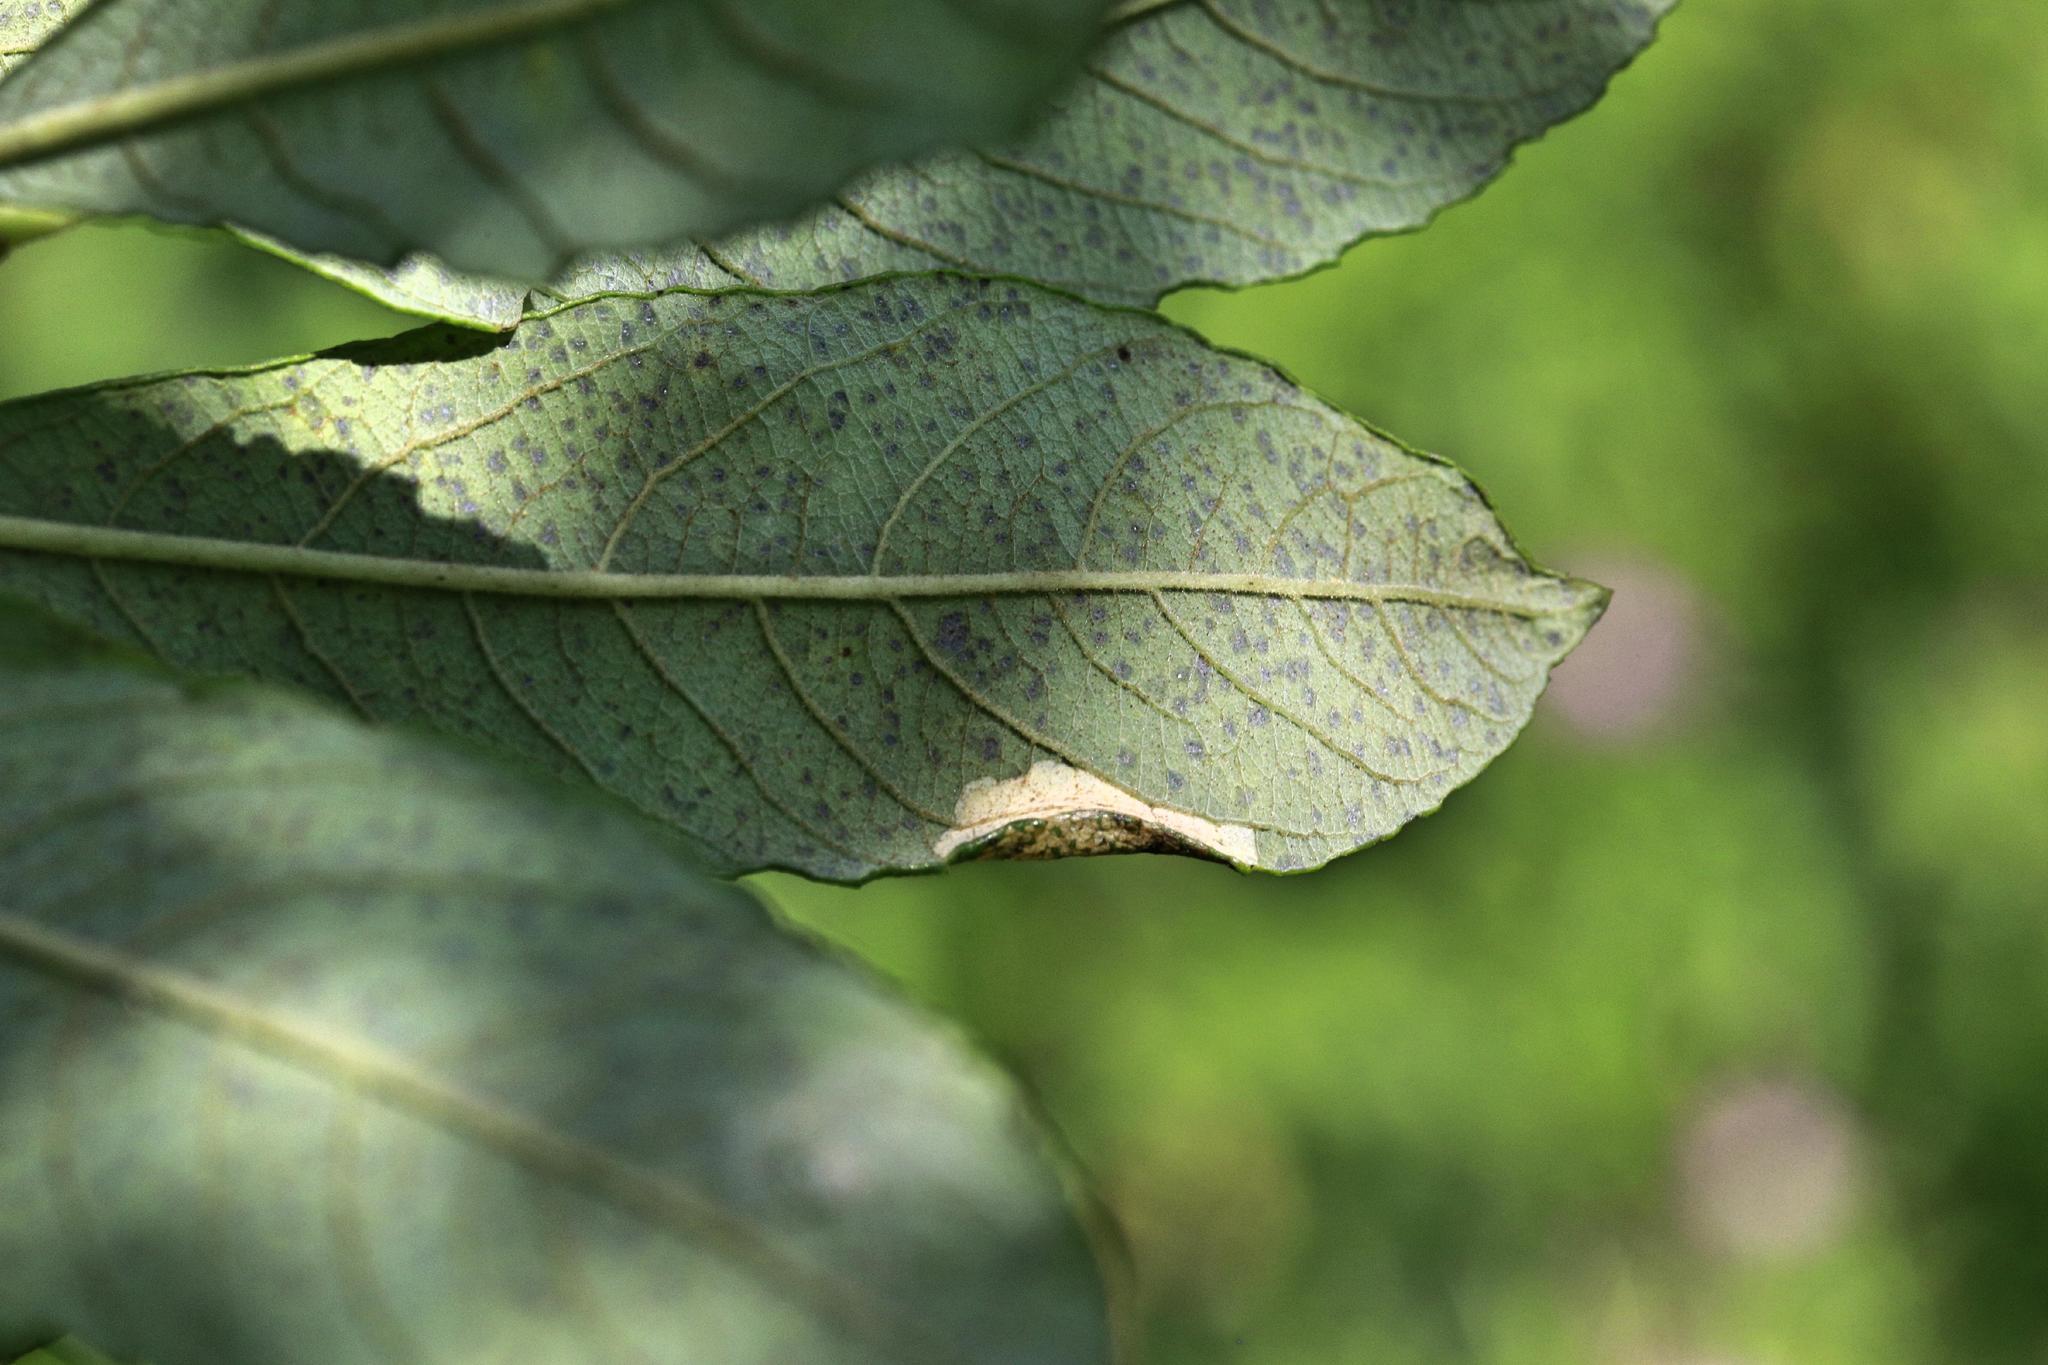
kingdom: Animalia
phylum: Arthropoda
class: Insecta
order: Lepidoptera
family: Gracillariidae
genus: Phyllonorycter
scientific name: Phyllonorycter salictella
